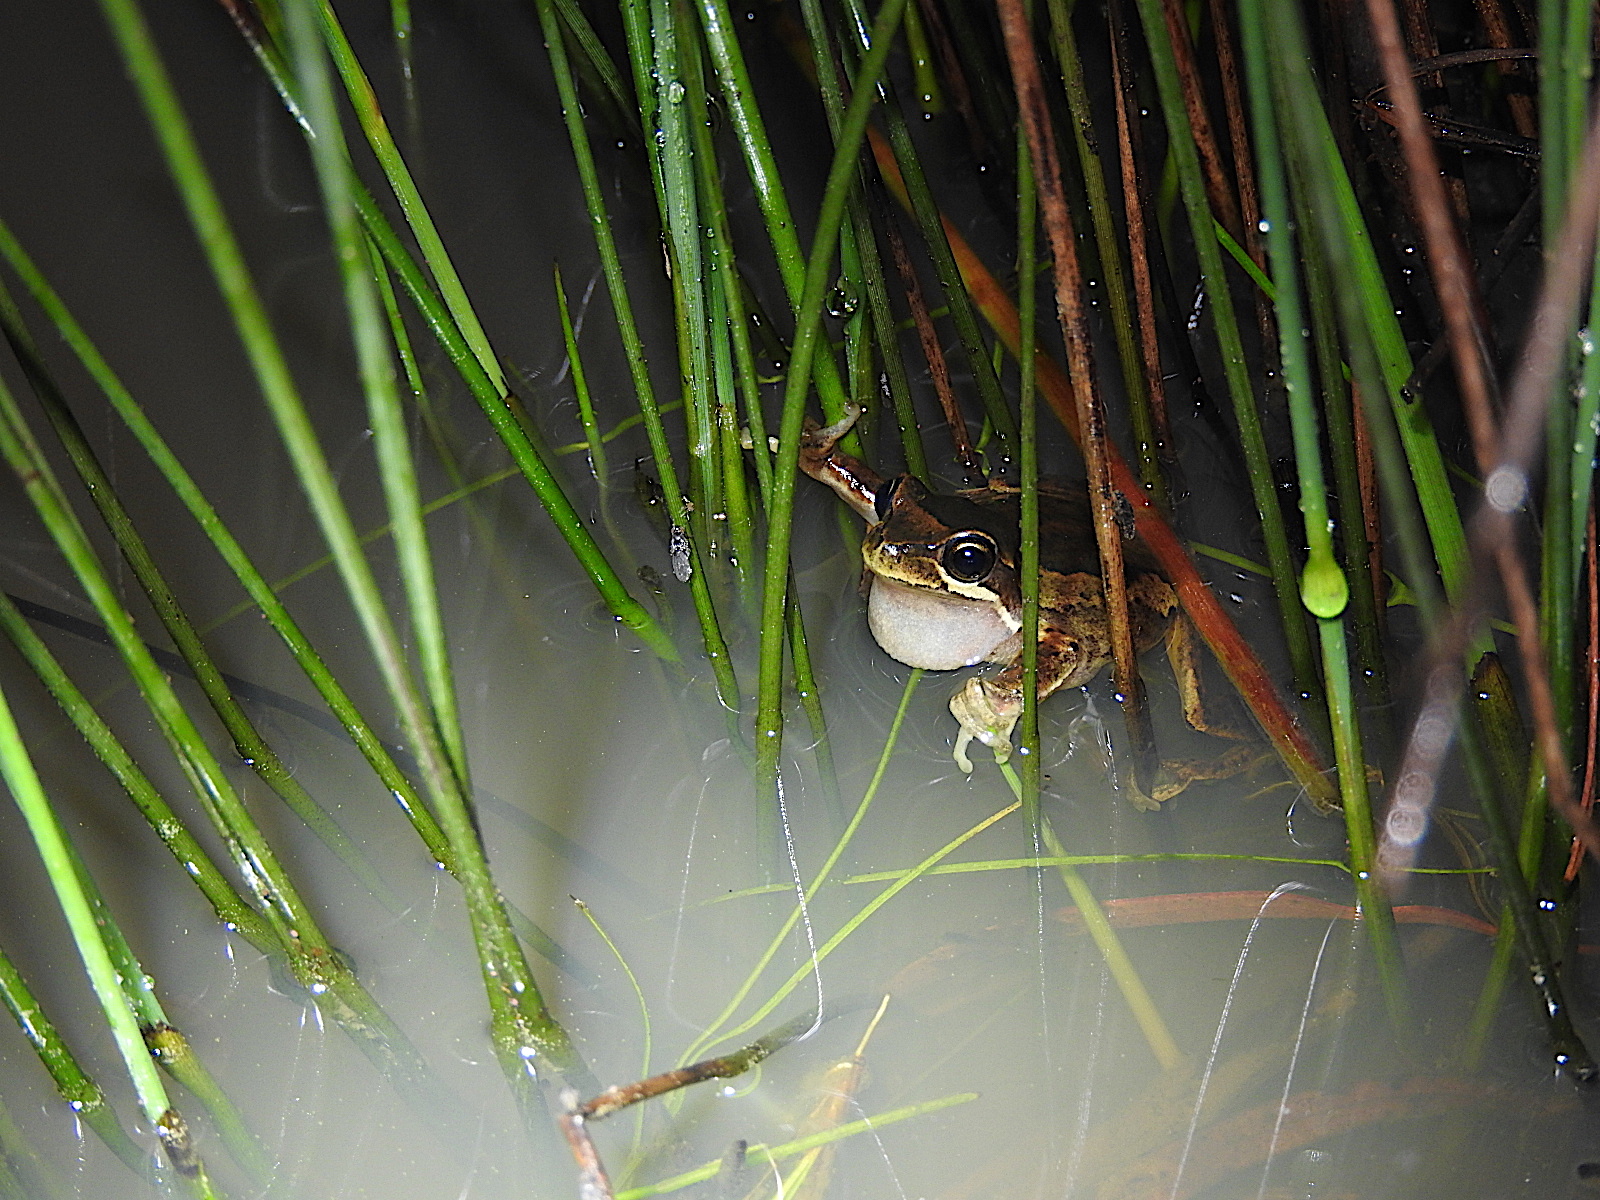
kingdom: Animalia
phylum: Chordata
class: Amphibia
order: Anura
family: Pelodryadidae
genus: Litoria
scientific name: Litoria ewingii
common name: Southern brown tree frog
